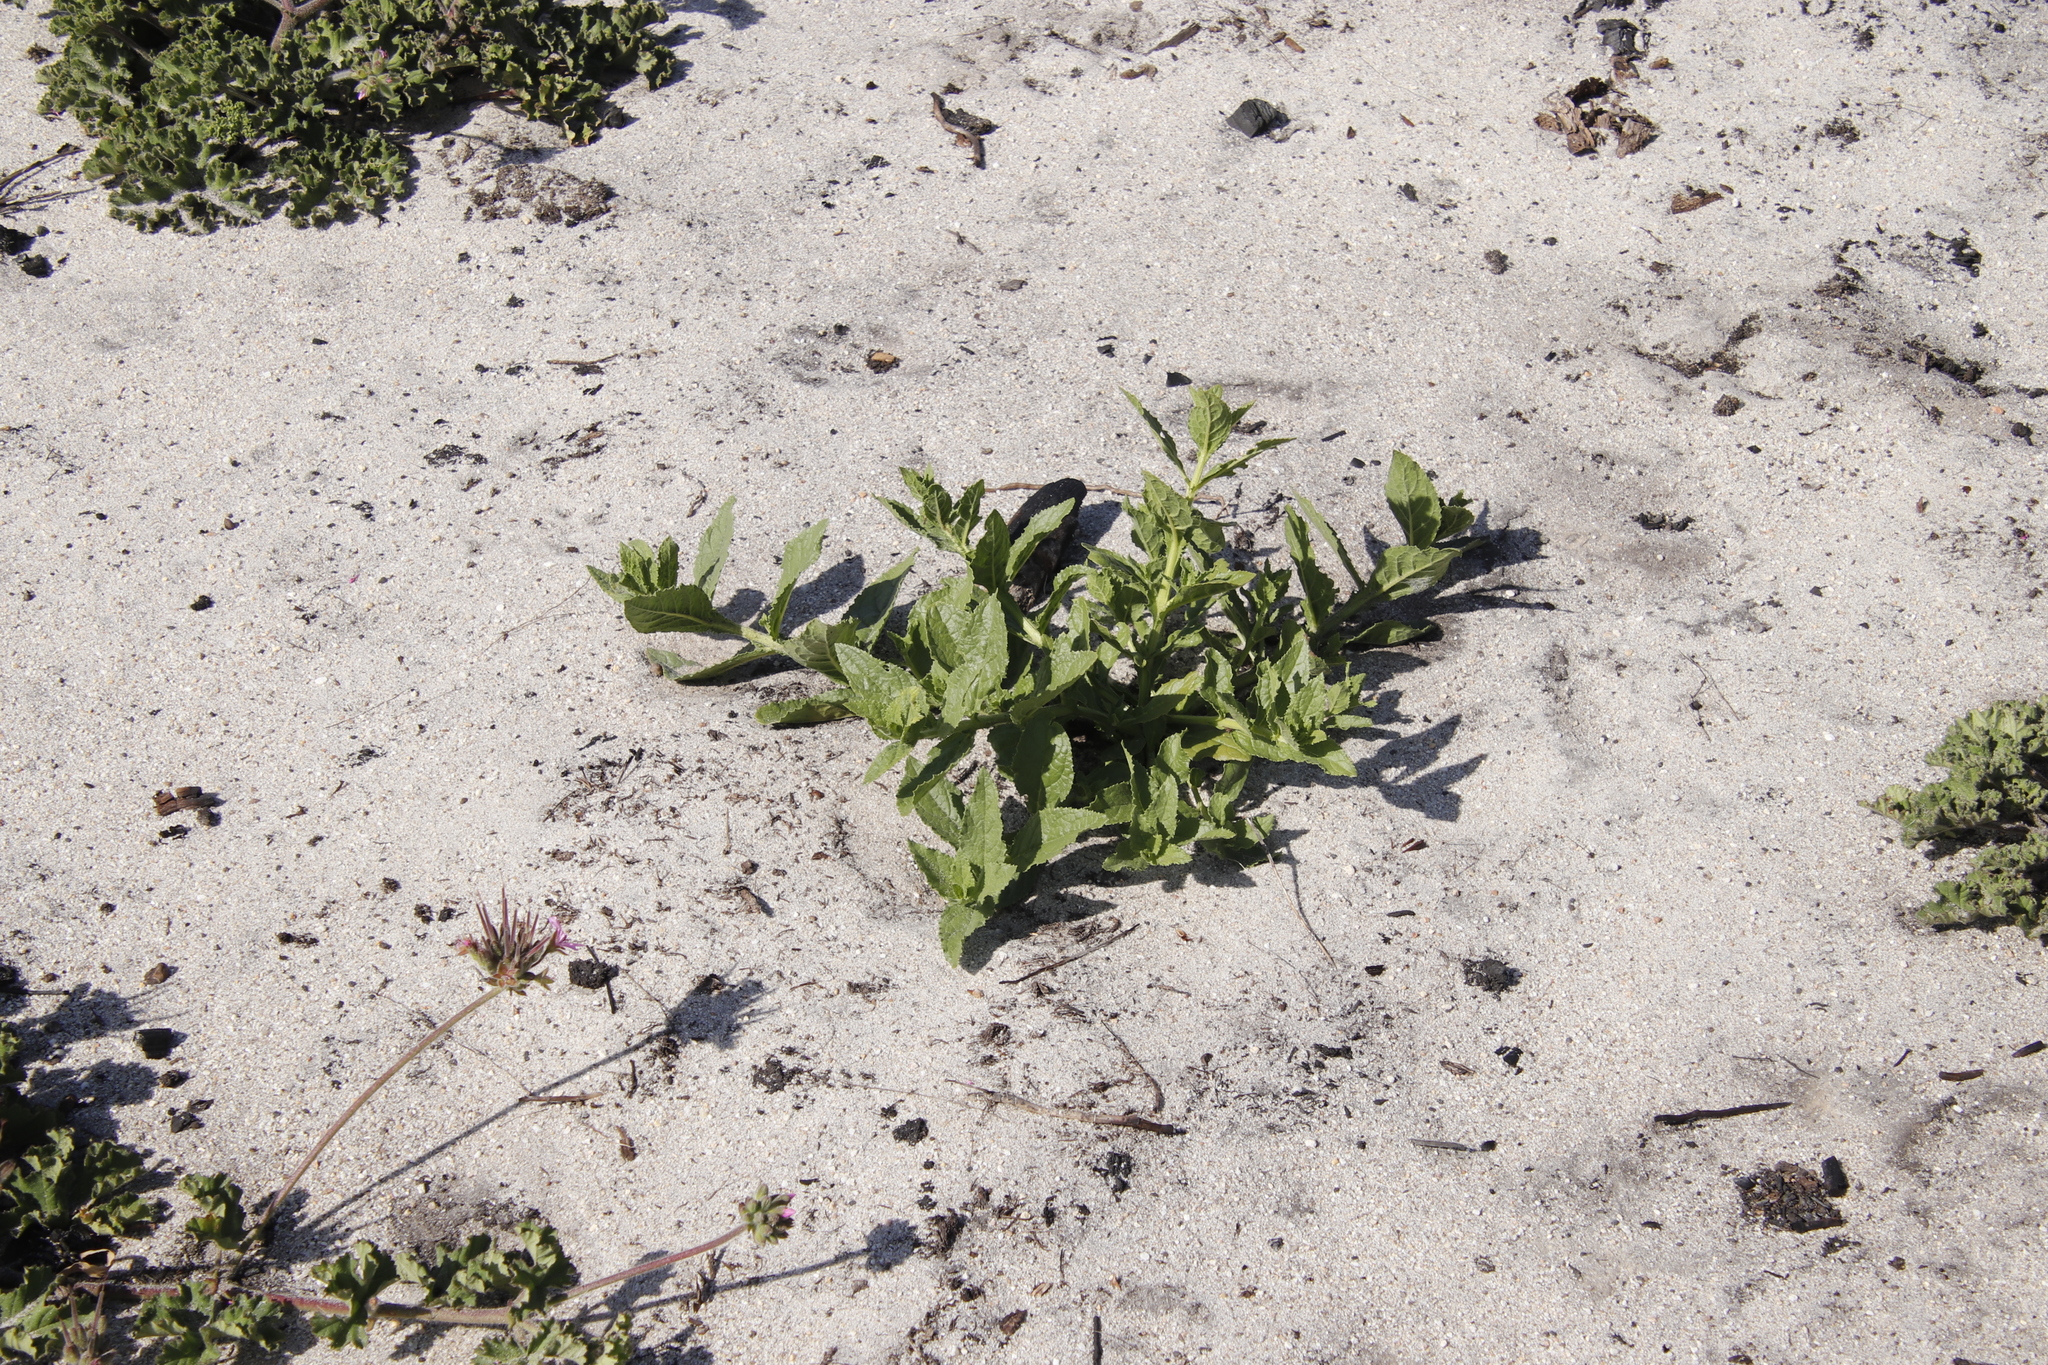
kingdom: Plantae
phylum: Tracheophyta
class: Magnoliopsida
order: Lamiales
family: Scrophulariaceae
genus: Oftia
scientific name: Oftia africana
